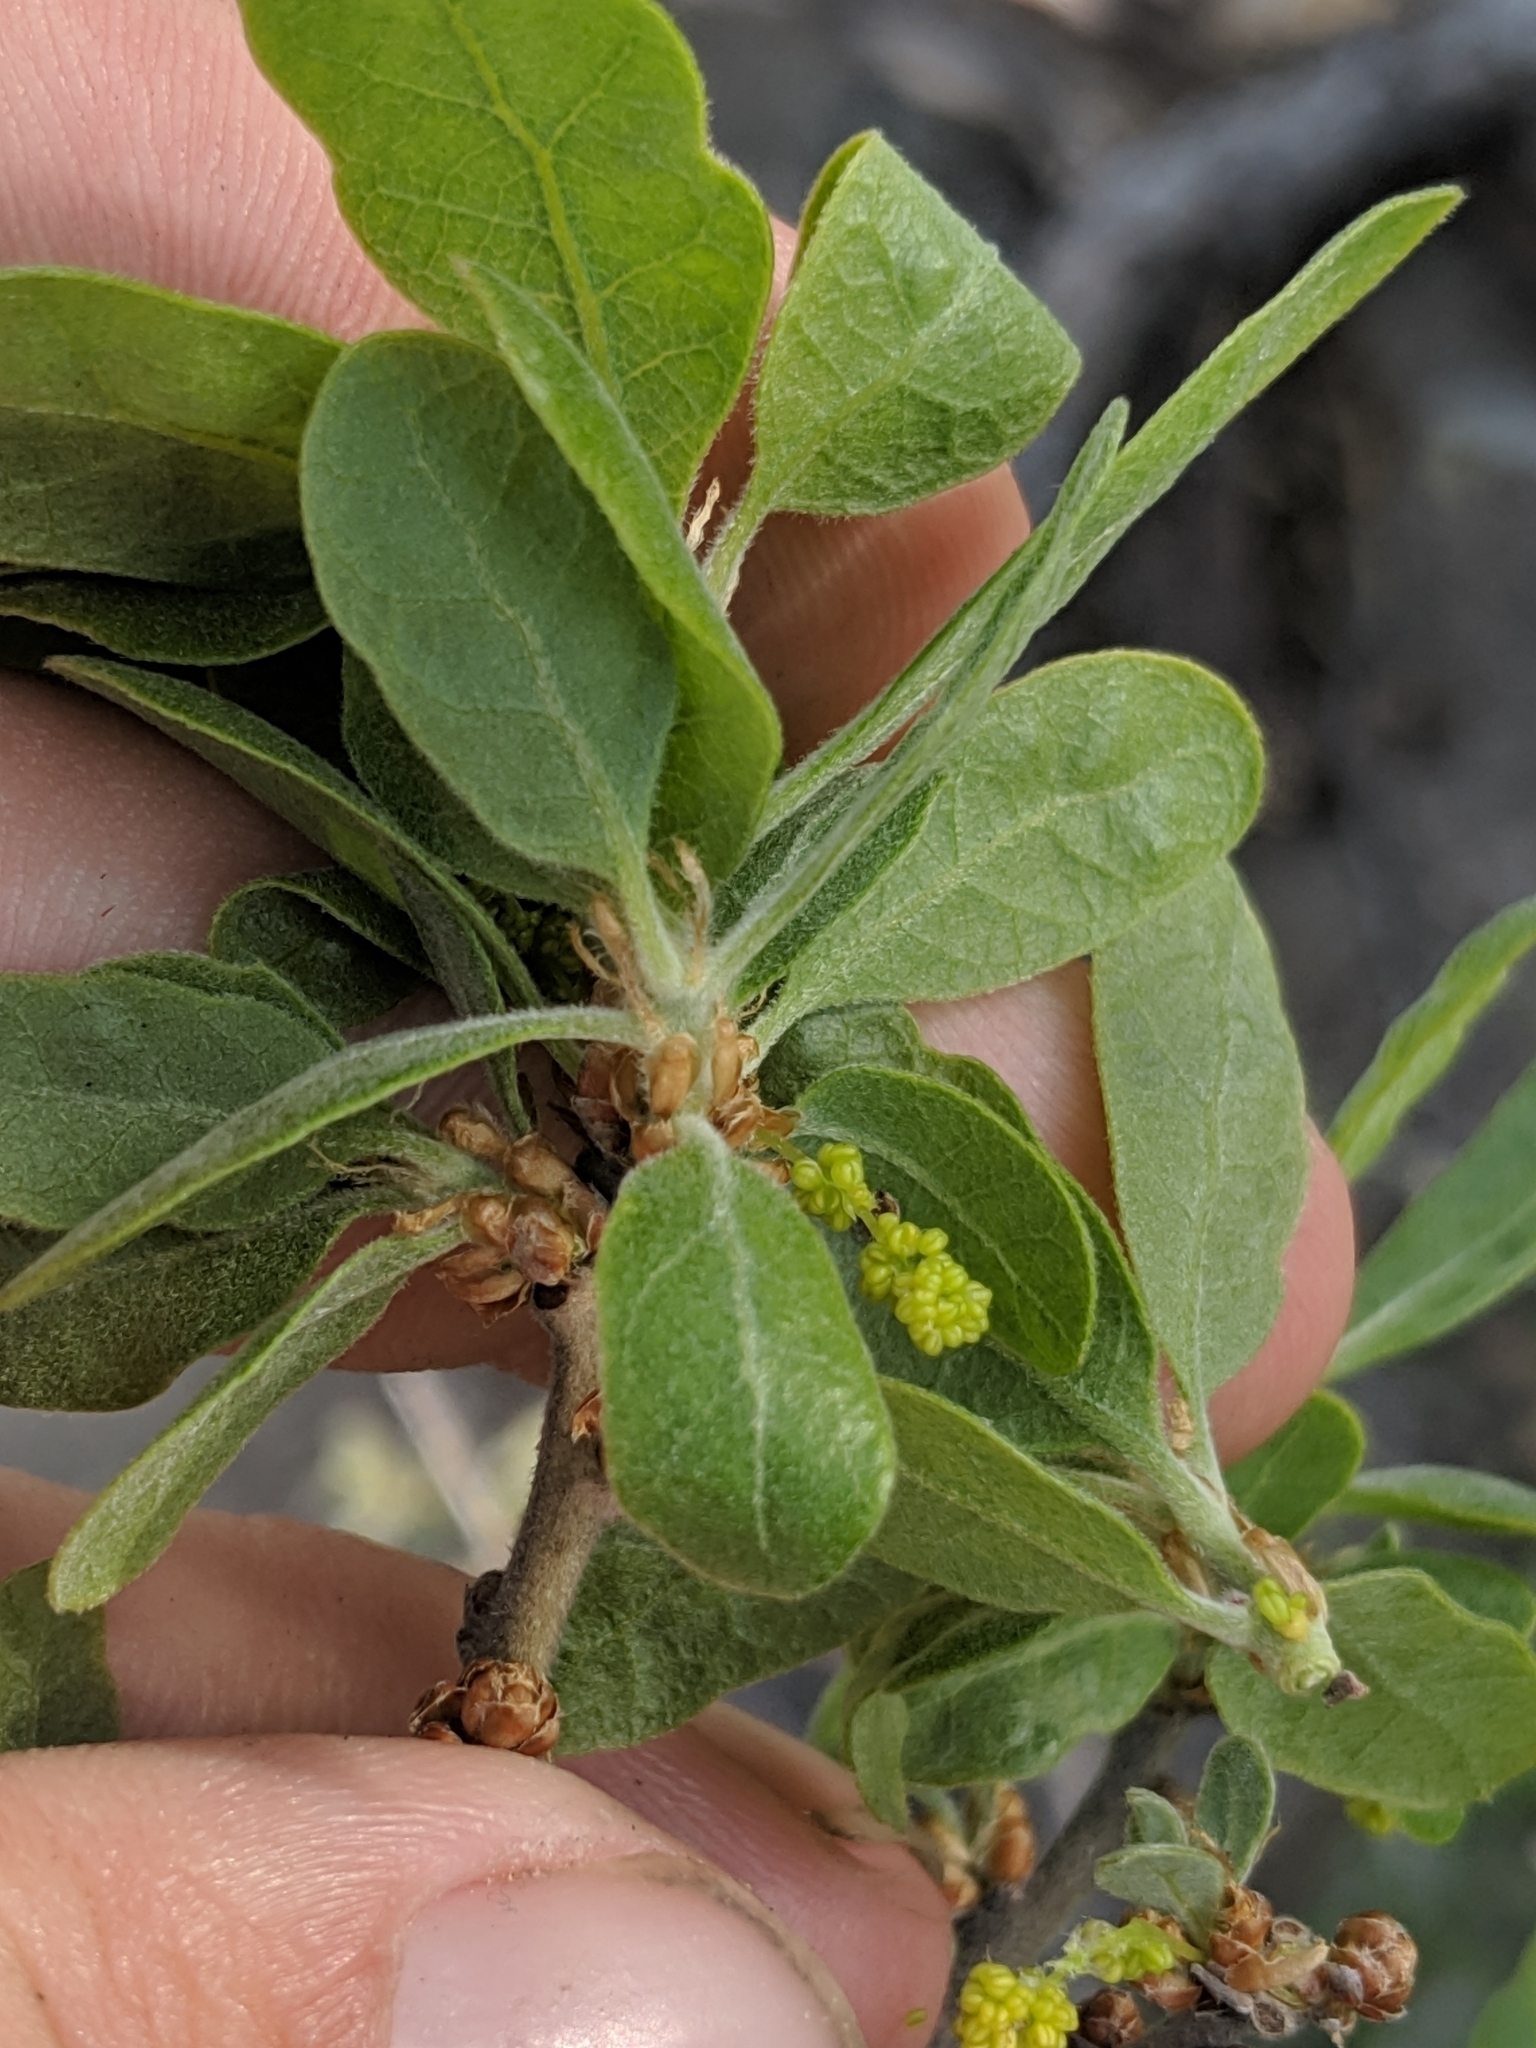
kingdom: Plantae
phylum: Tracheophyta
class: Magnoliopsida
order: Fagales
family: Fagaceae
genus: Quercus
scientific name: Quercus douglasii
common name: Blue oak
